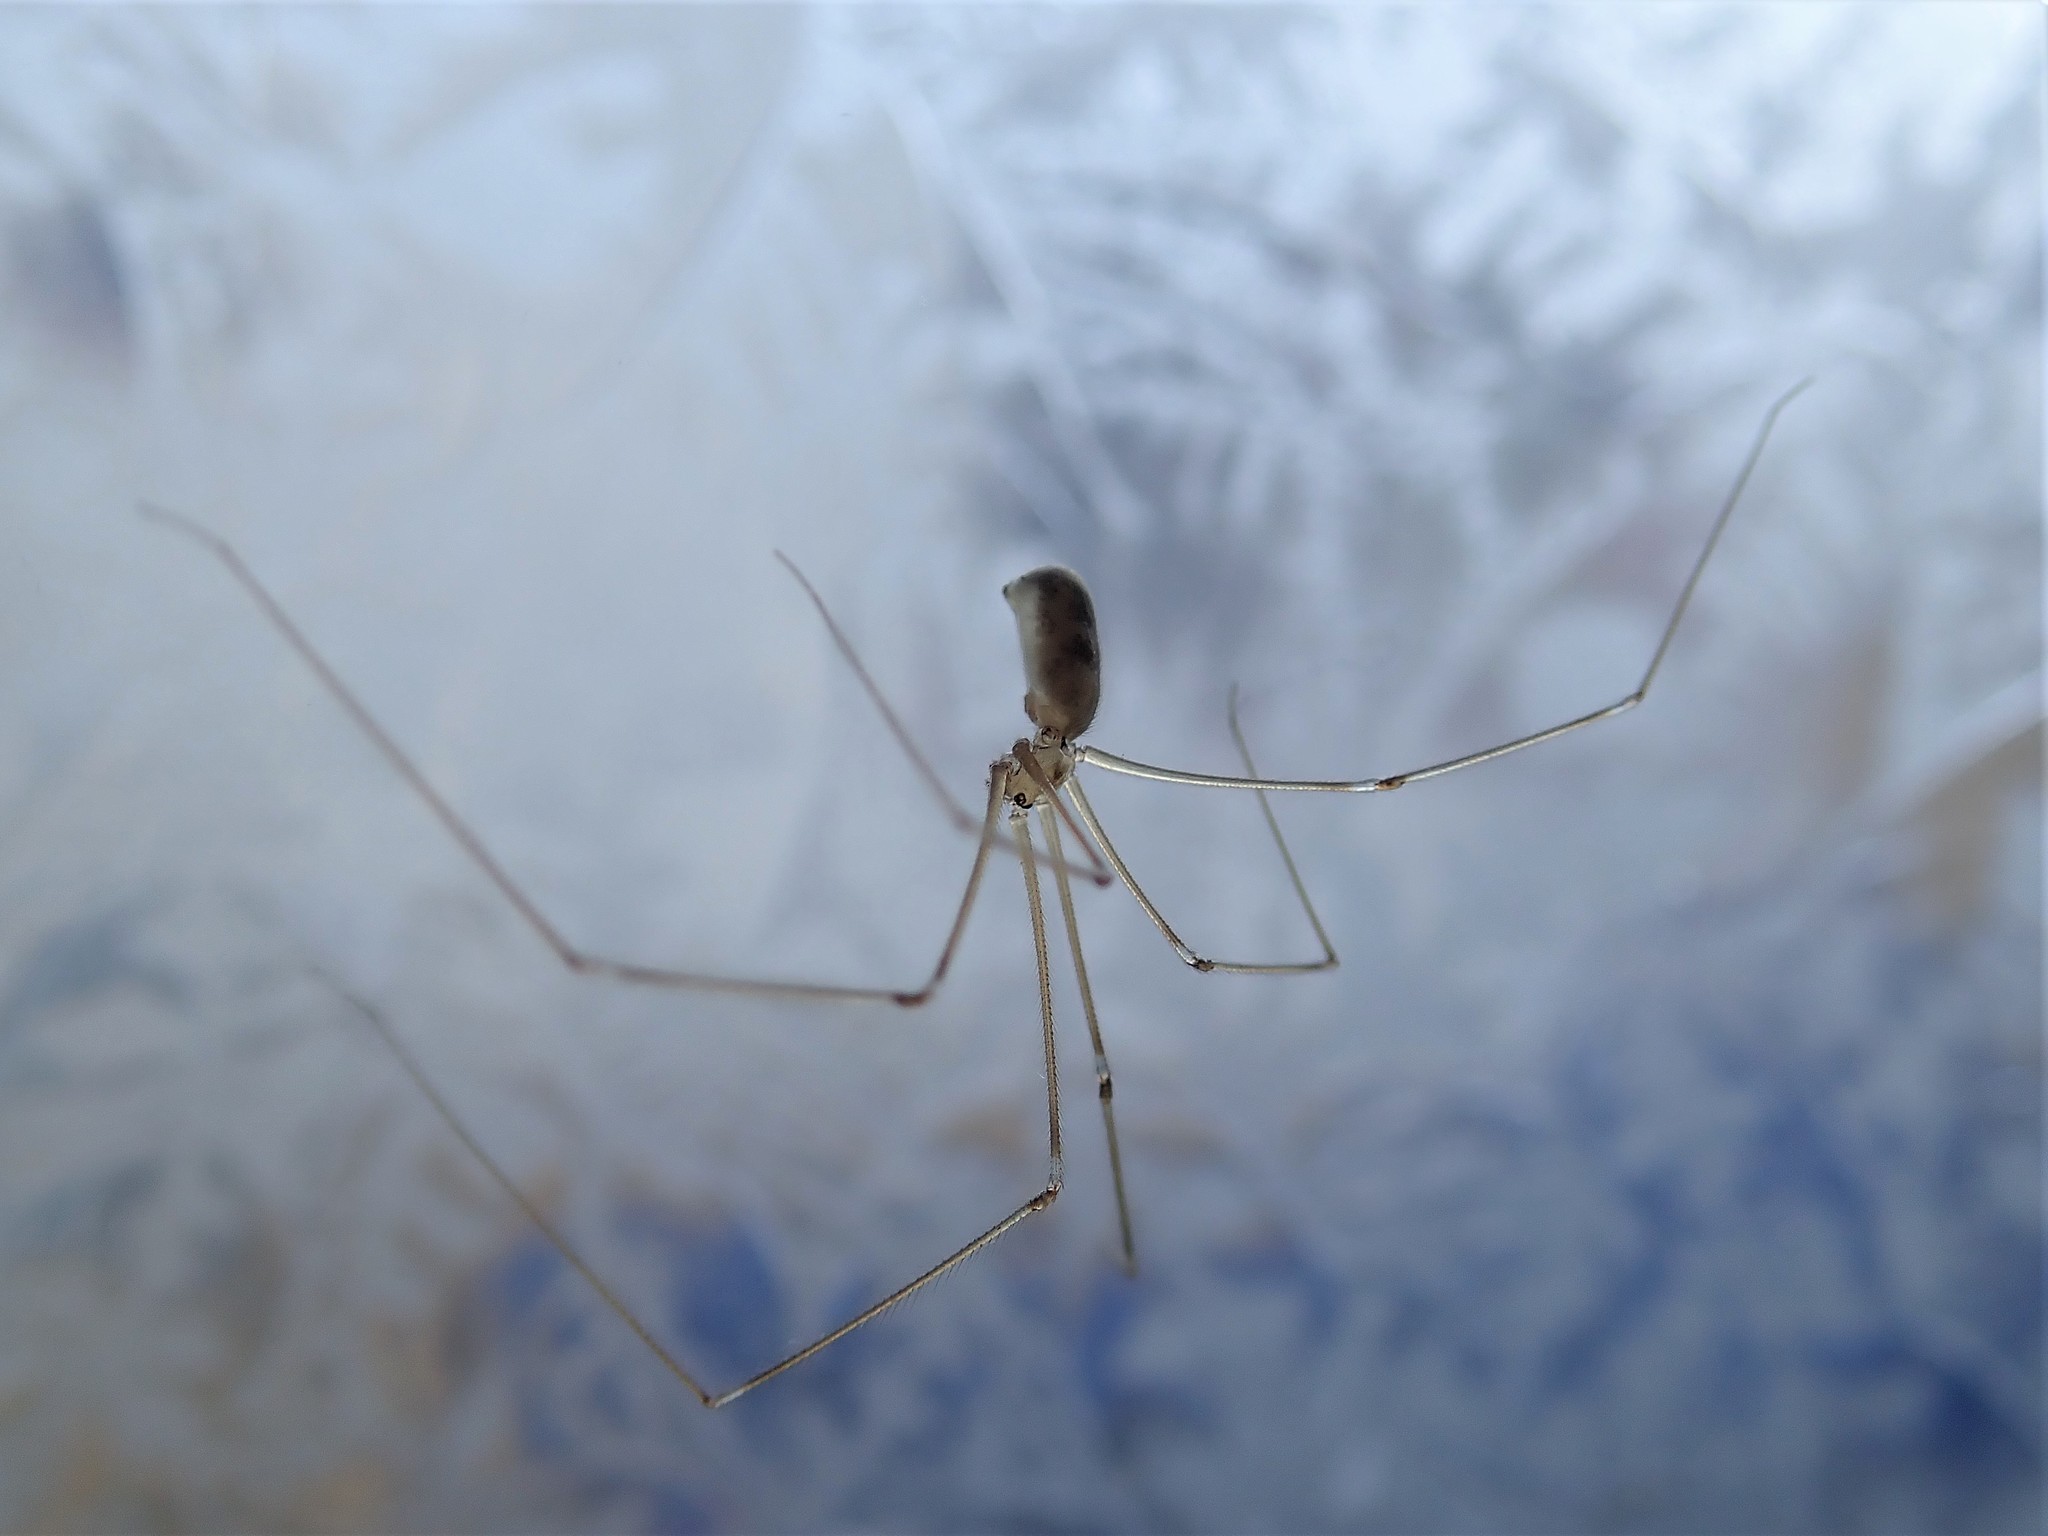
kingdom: Animalia
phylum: Arthropoda
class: Arachnida
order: Araneae
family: Pholcidae
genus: Pholcus
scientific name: Pholcus phalangioides
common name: Longbodied cellar spider
